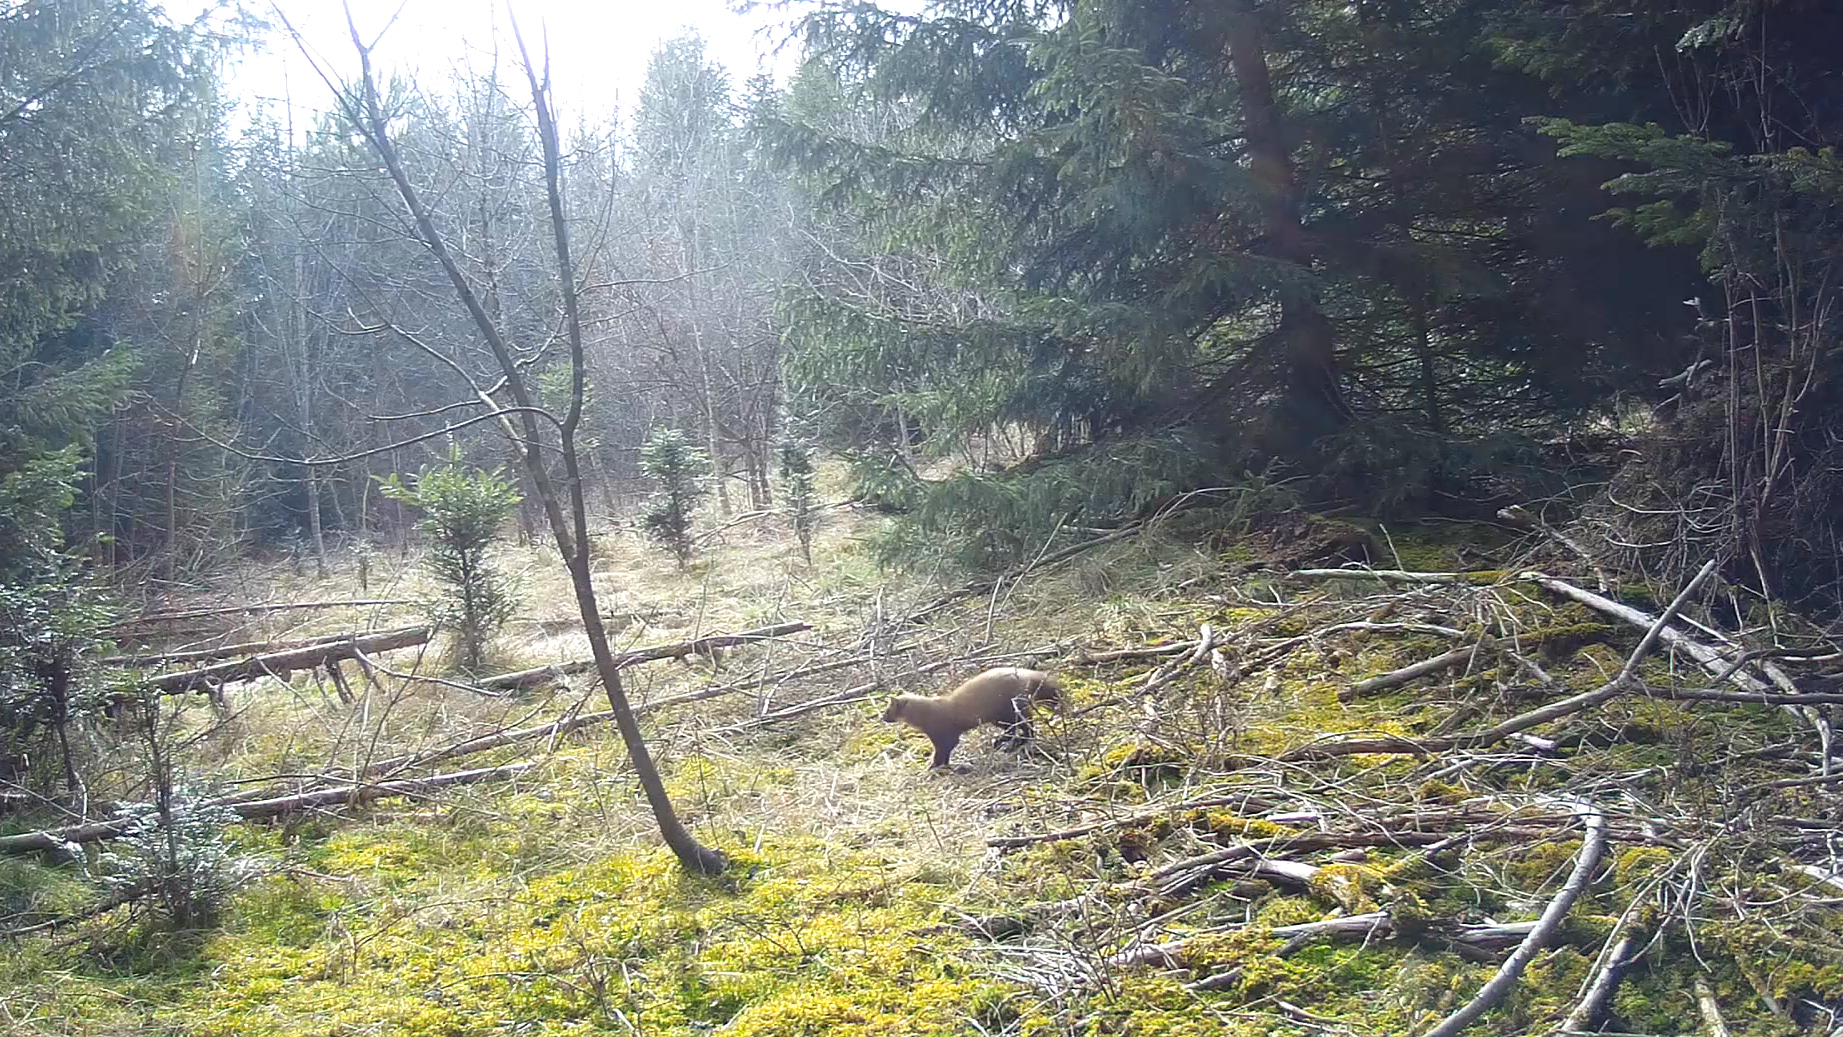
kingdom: Animalia
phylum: Chordata
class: Mammalia
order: Carnivora
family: Mustelidae
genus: Martes
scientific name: Martes martes
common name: European pine marten
